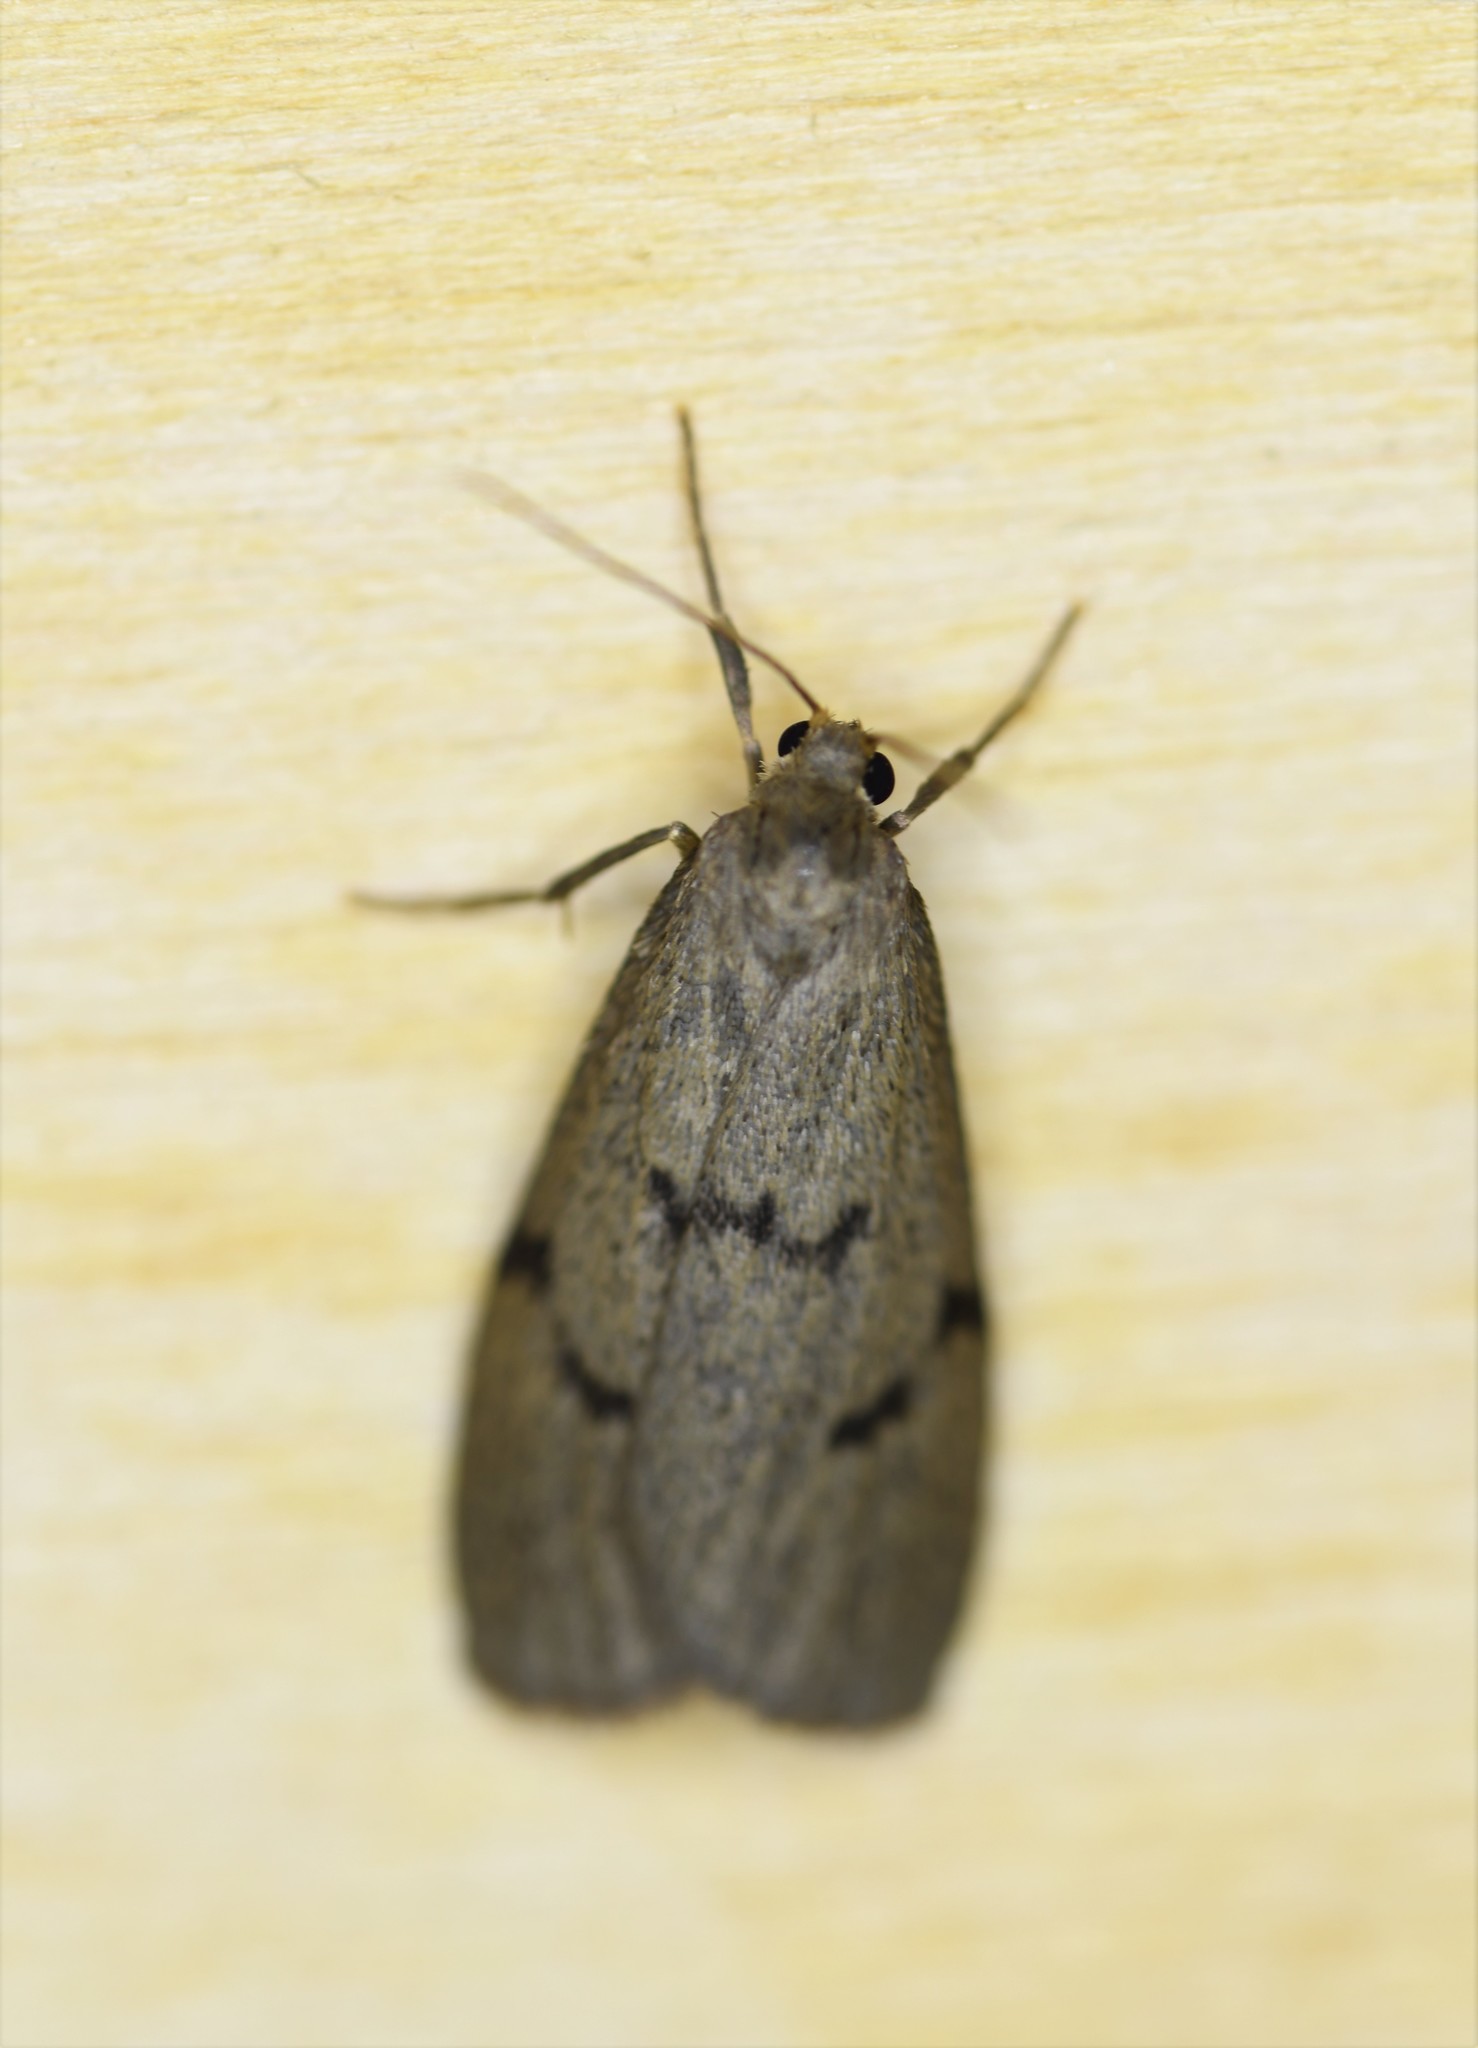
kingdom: Animalia
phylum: Arthropoda
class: Insecta
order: Lepidoptera
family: Erebidae
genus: Apaidia
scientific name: Apaidia mesogona
